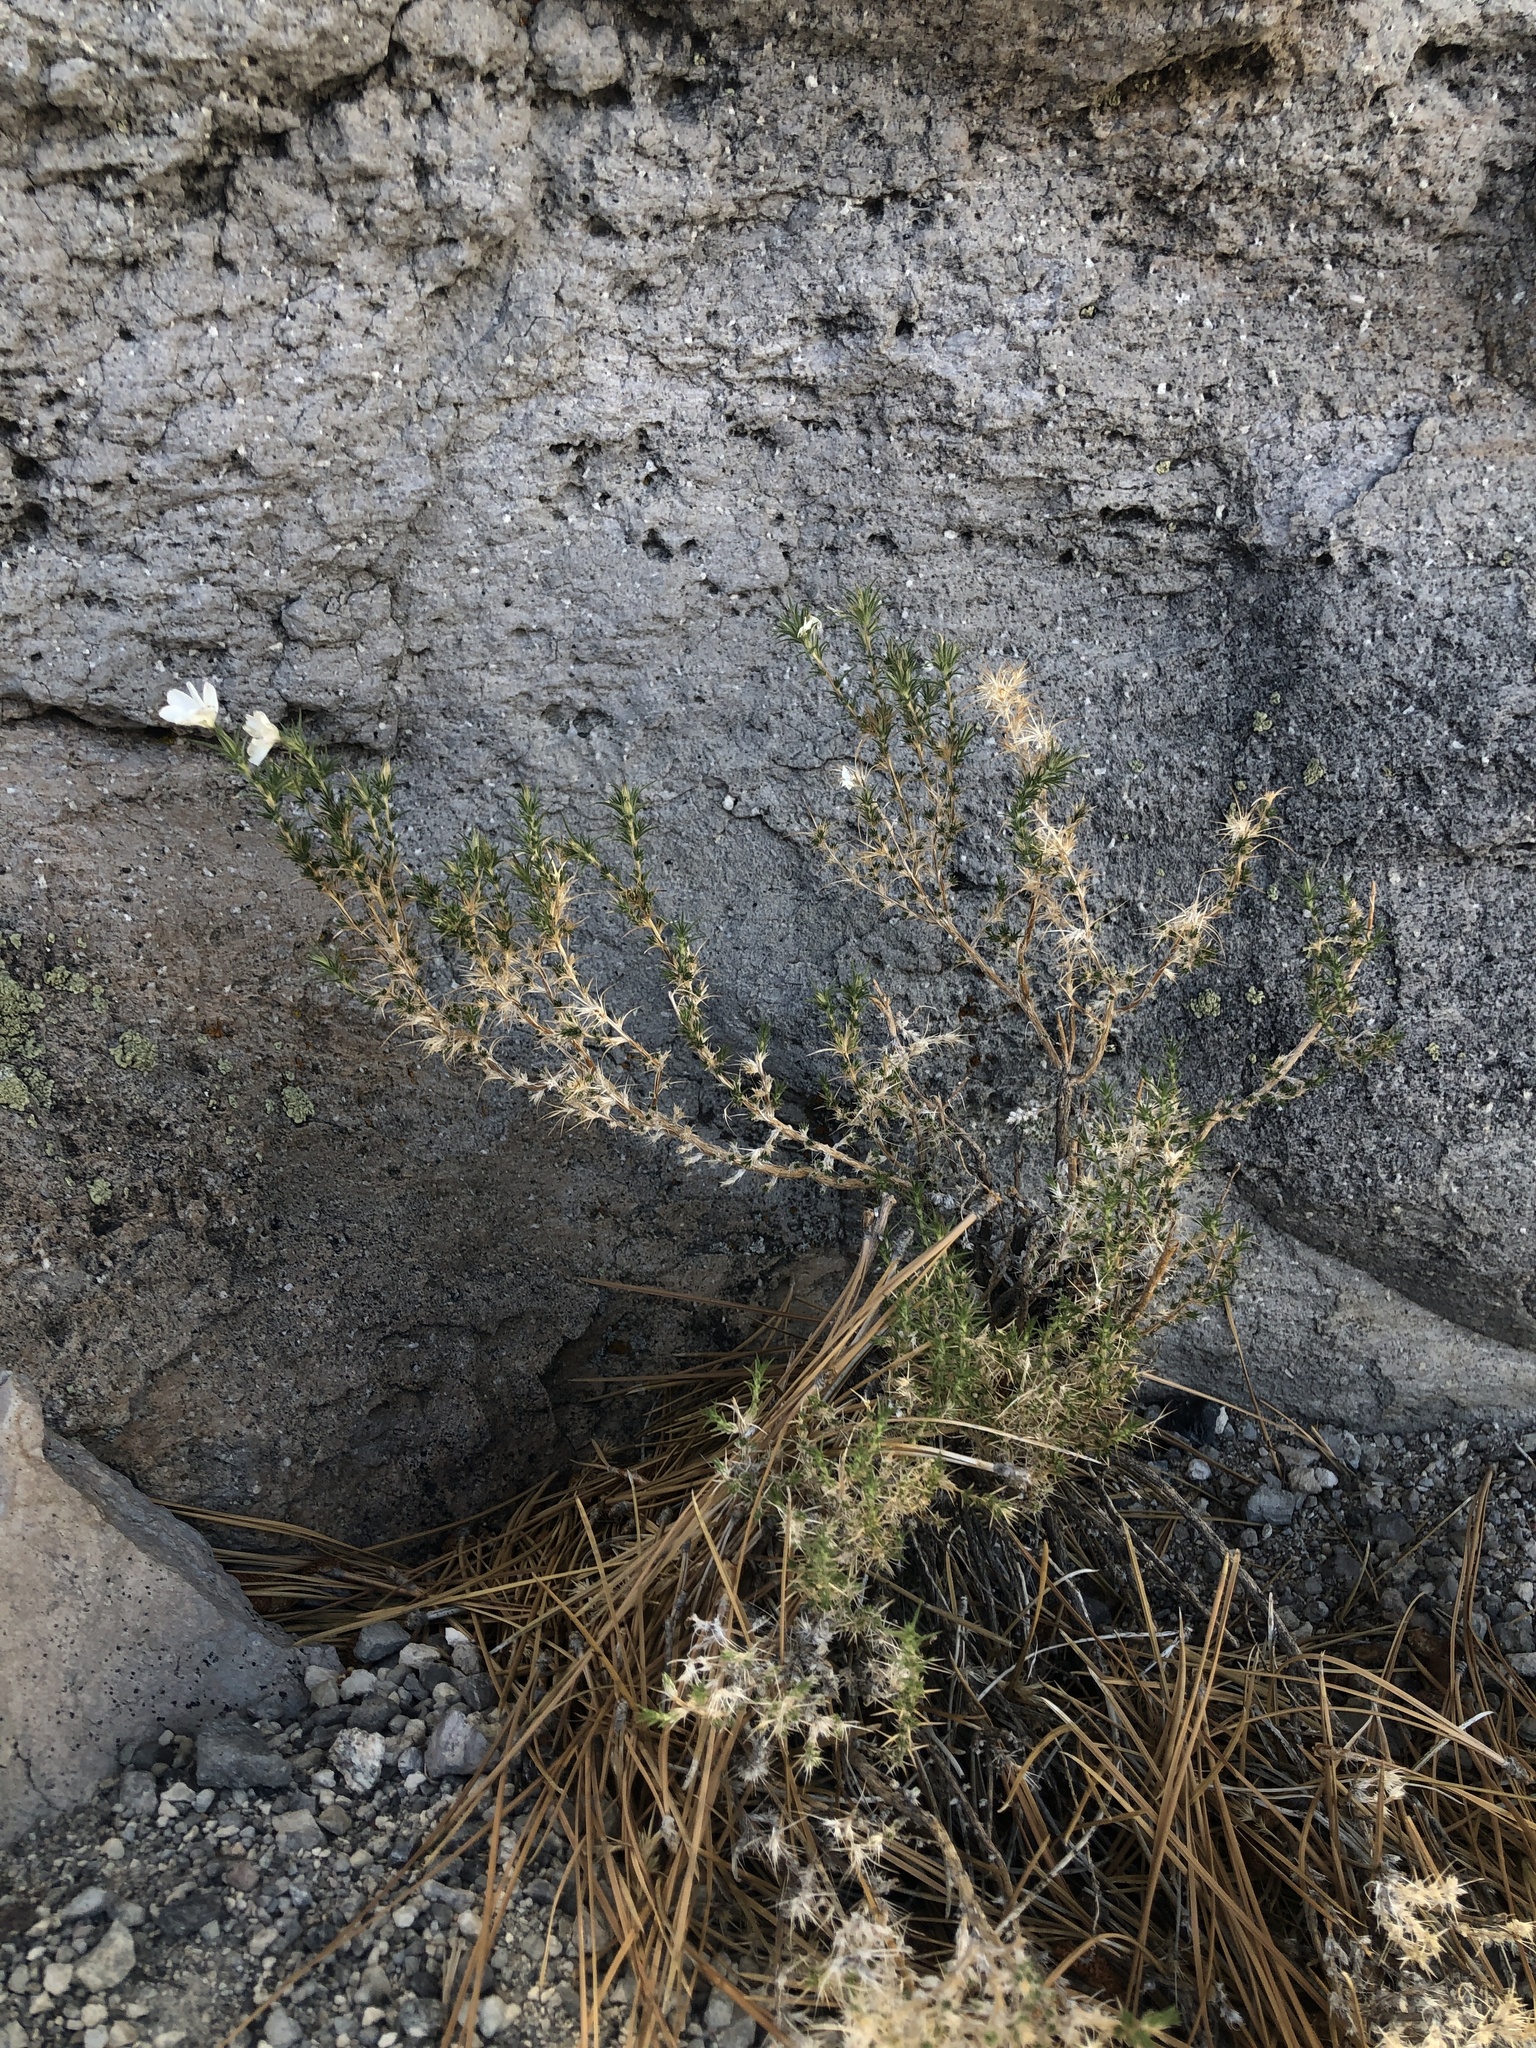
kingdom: Plantae
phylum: Tracheophyta
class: Magnoliopsida
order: Ericales
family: Polemoniaceae
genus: Linanthus
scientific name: Linanthus pungens
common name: Granite prickly phlox
